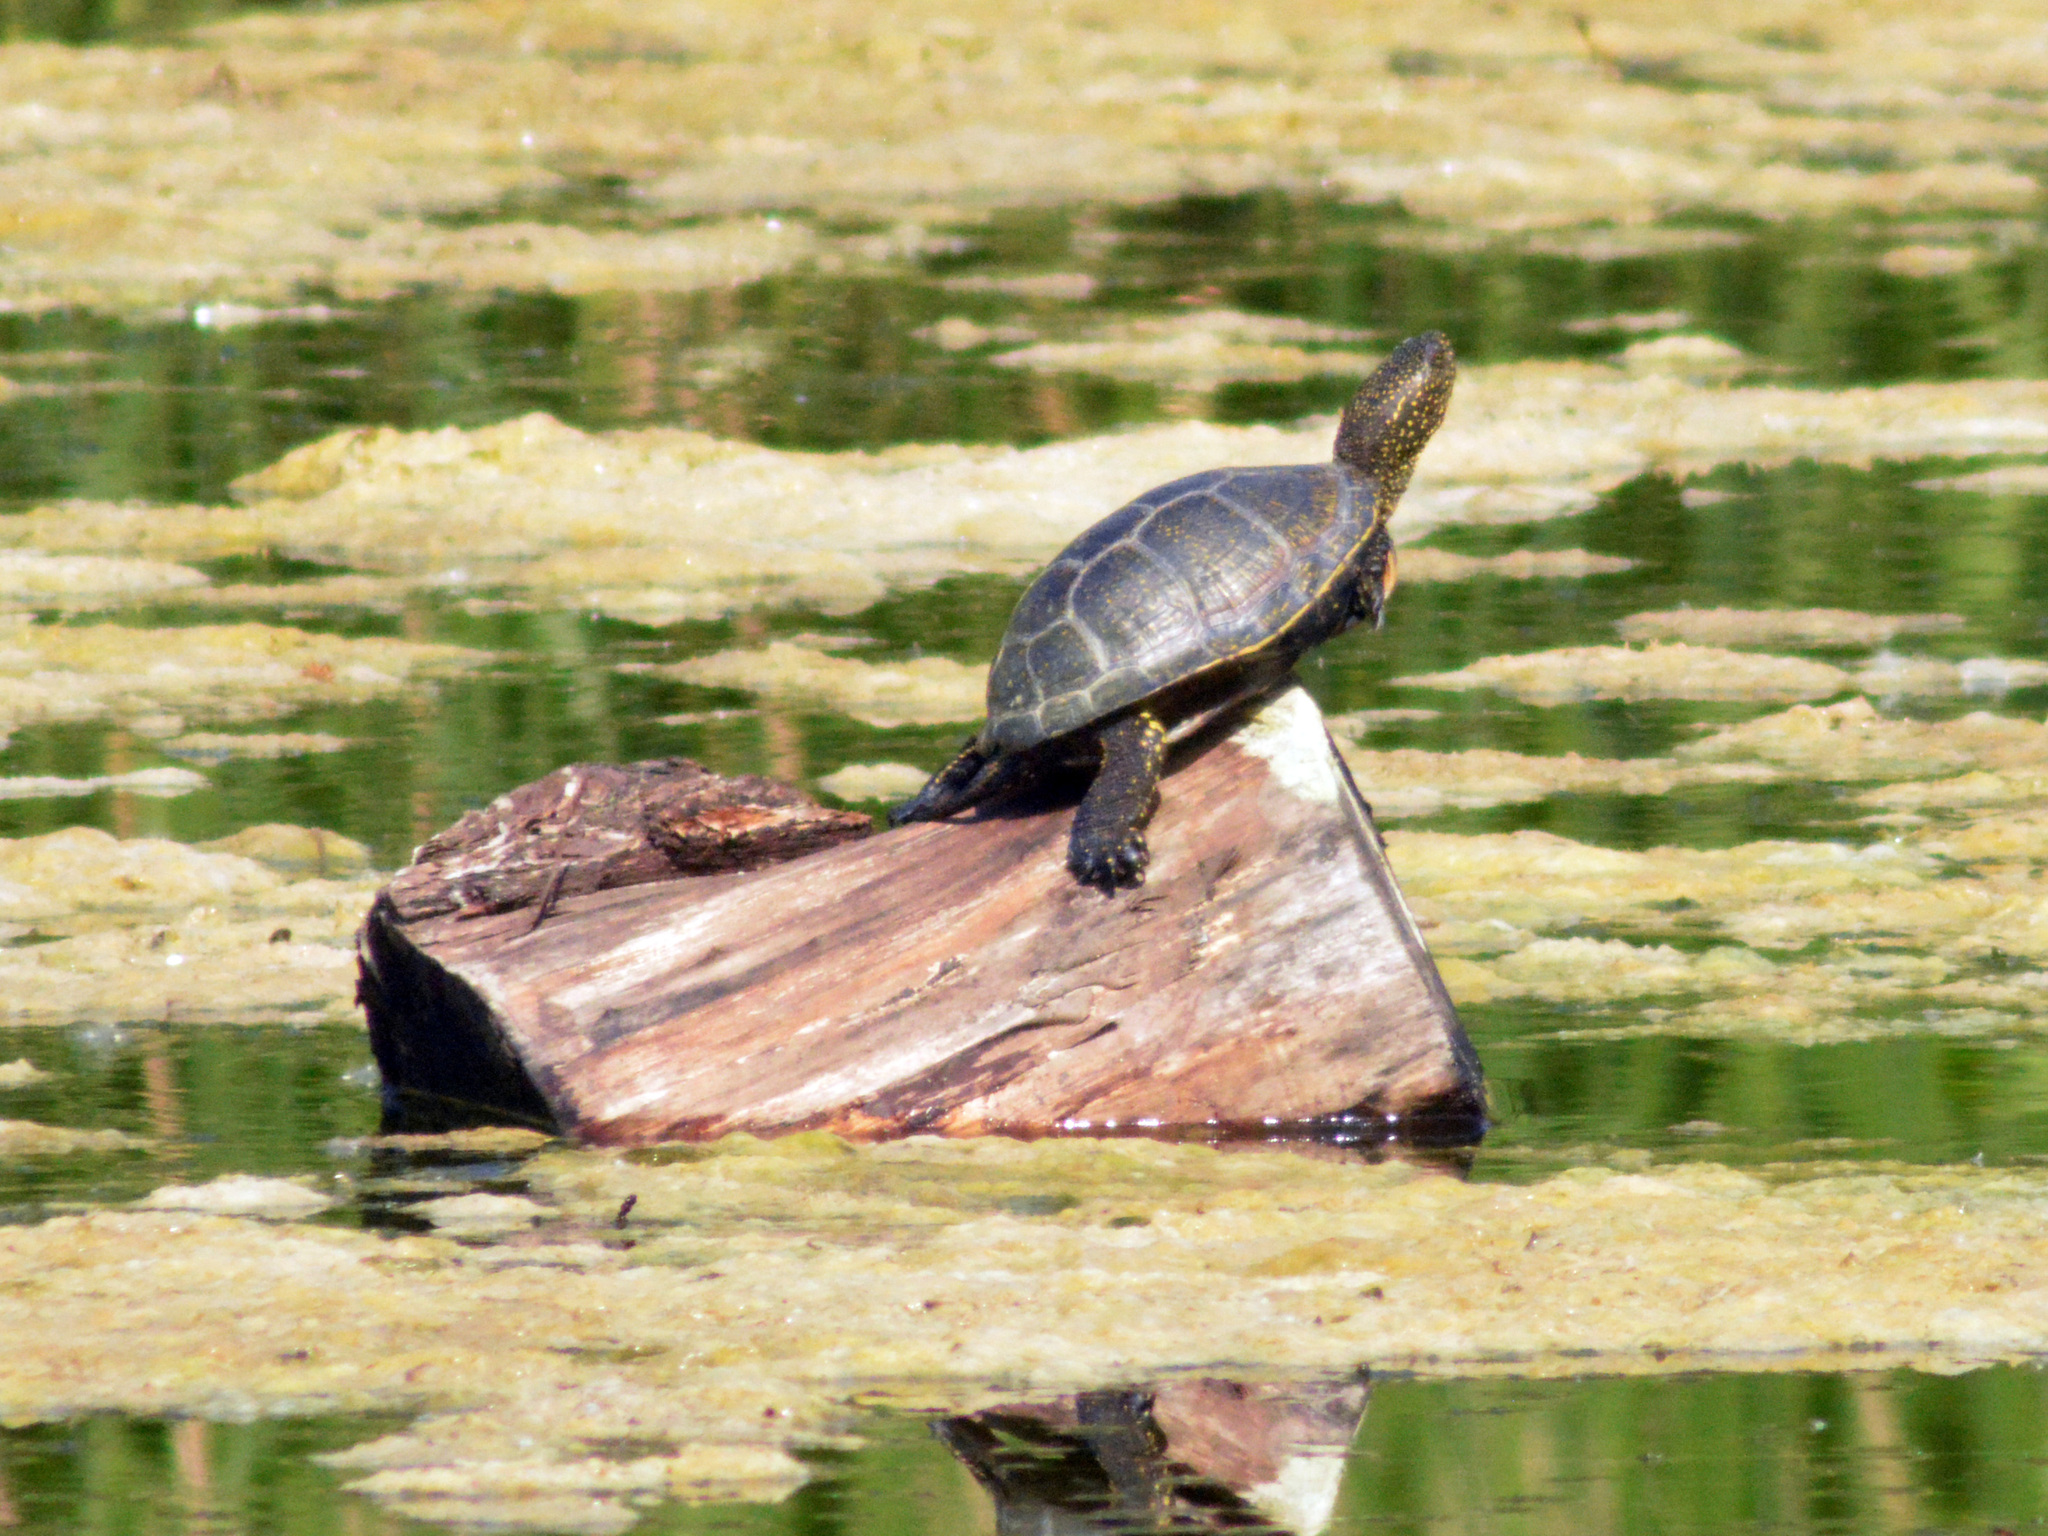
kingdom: Animalia
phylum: Chordata
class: Testudines
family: Emydidae
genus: Emys
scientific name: Emys orbicularis
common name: European pond turtle
